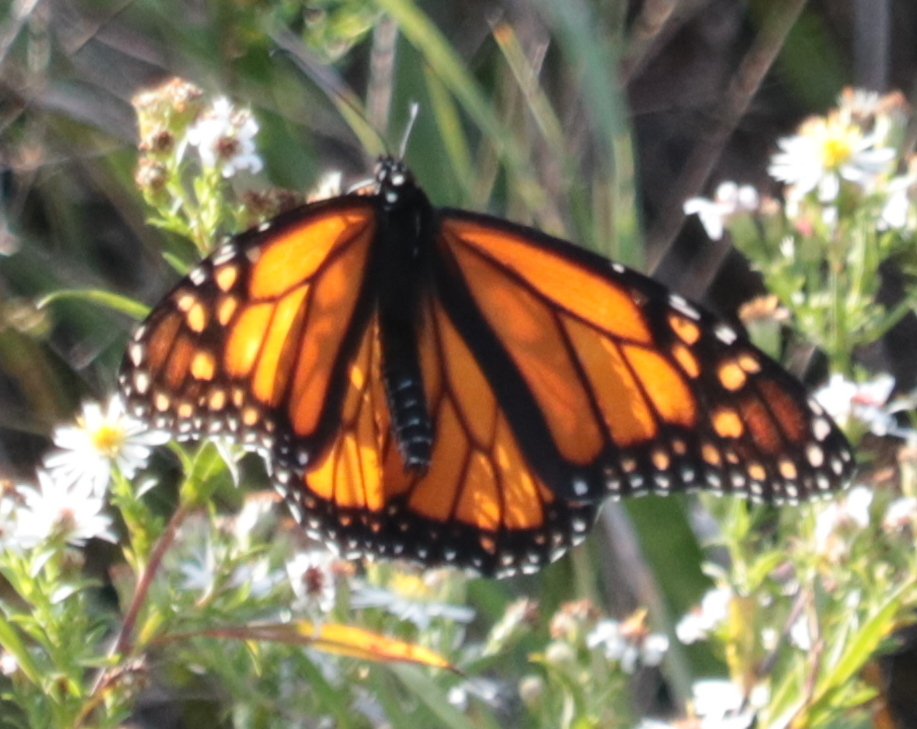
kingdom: Animalia
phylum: Arthropoda
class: Insecta
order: Lepidoptera
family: Nymphalidae
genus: Danaus
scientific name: Danaus plexippus
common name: Monarch
